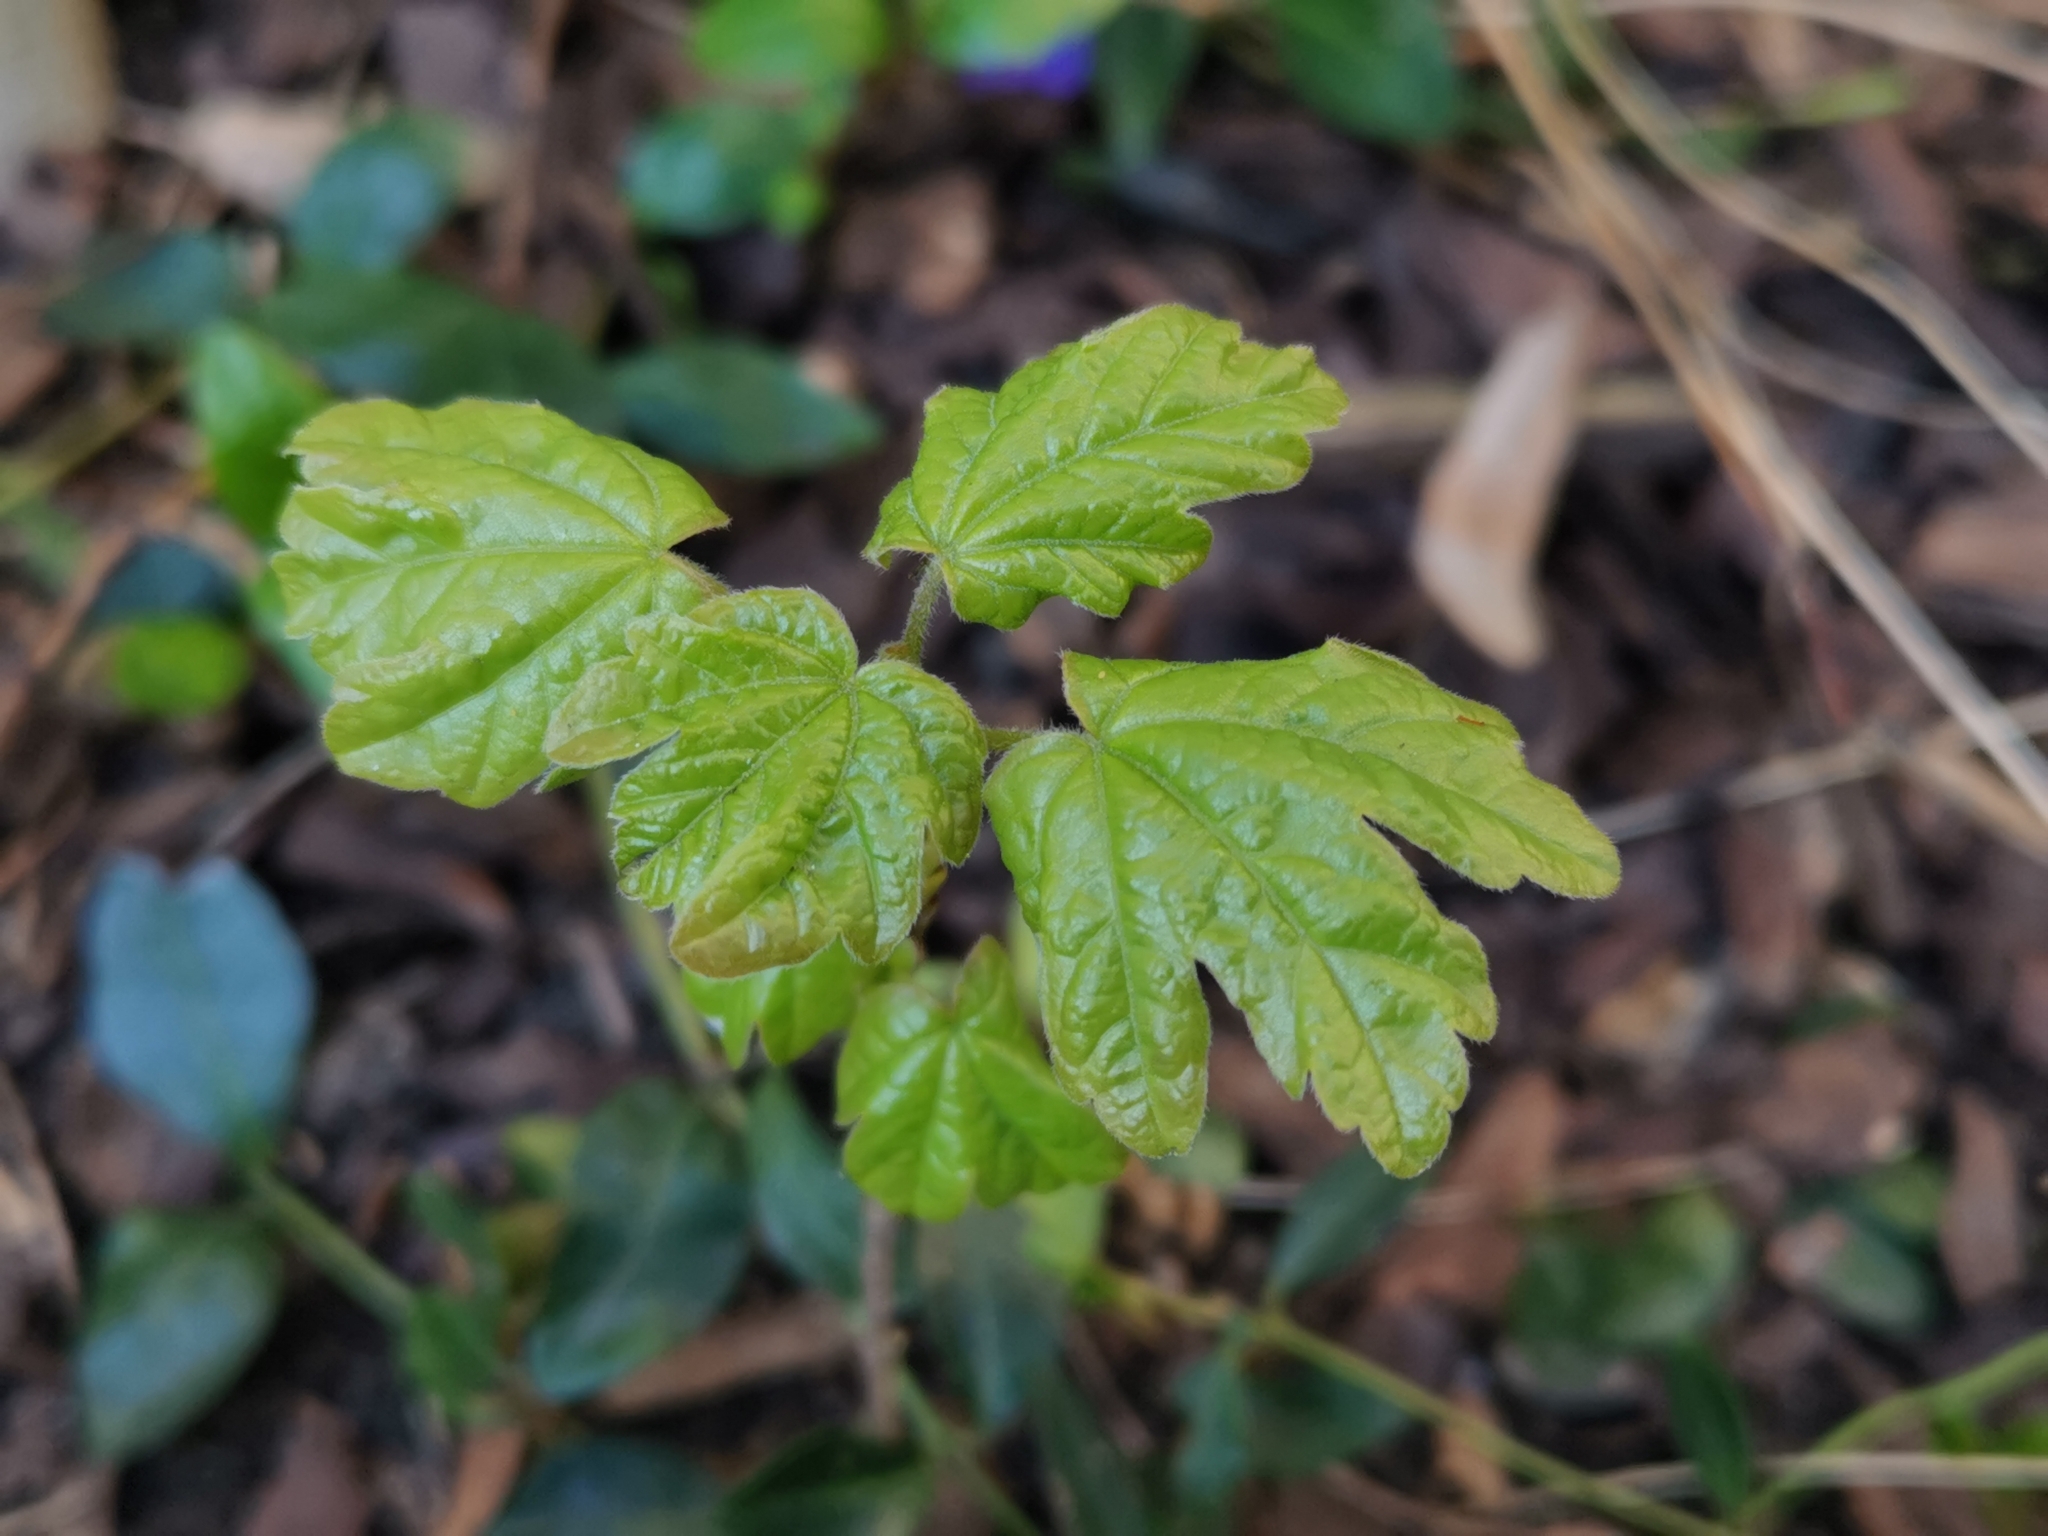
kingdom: Plantae
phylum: Tracheophyta
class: Magnoliopsida
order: Sapindales
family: Sapindaceae
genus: Acer
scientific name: Acer campestre
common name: Field maple
